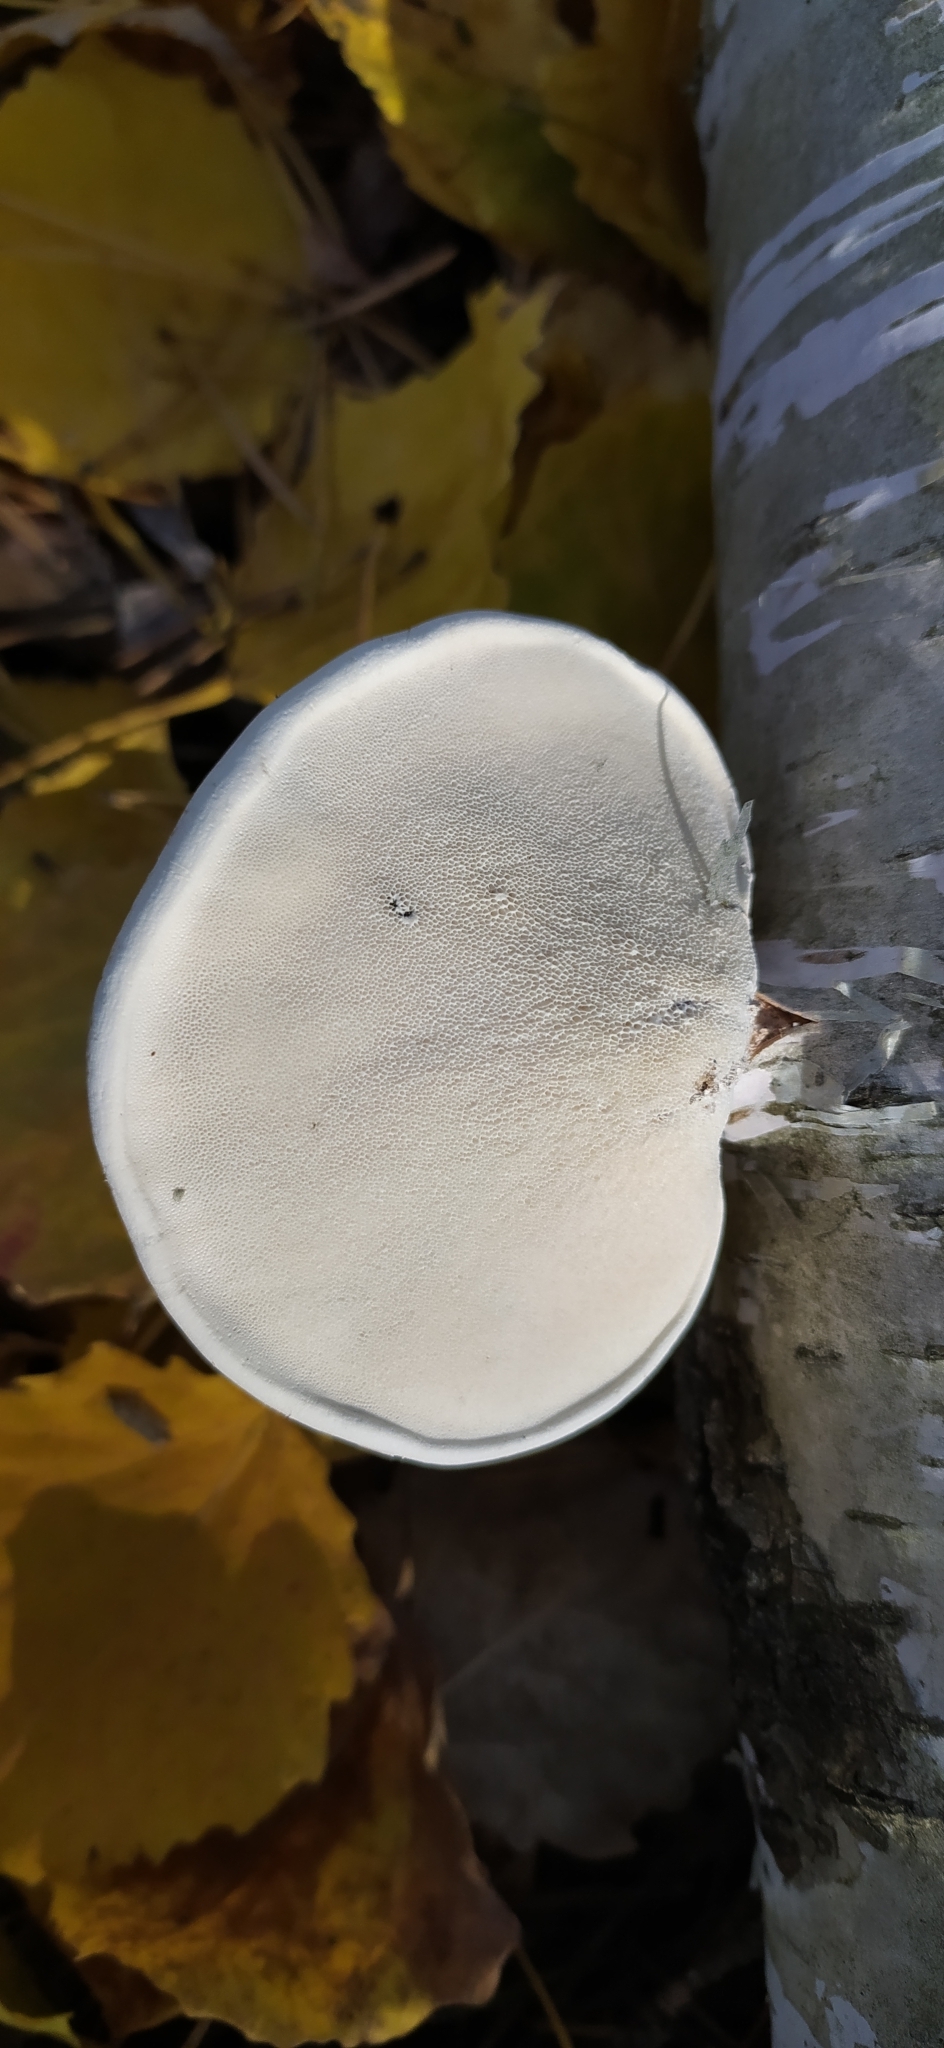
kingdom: Fungi
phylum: Basidiomycota
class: Agaricomycetes
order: Polyporales
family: Fomitopsidaceae
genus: Fomitopsis
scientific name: Fomitopsis betulina
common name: Birch polypore
